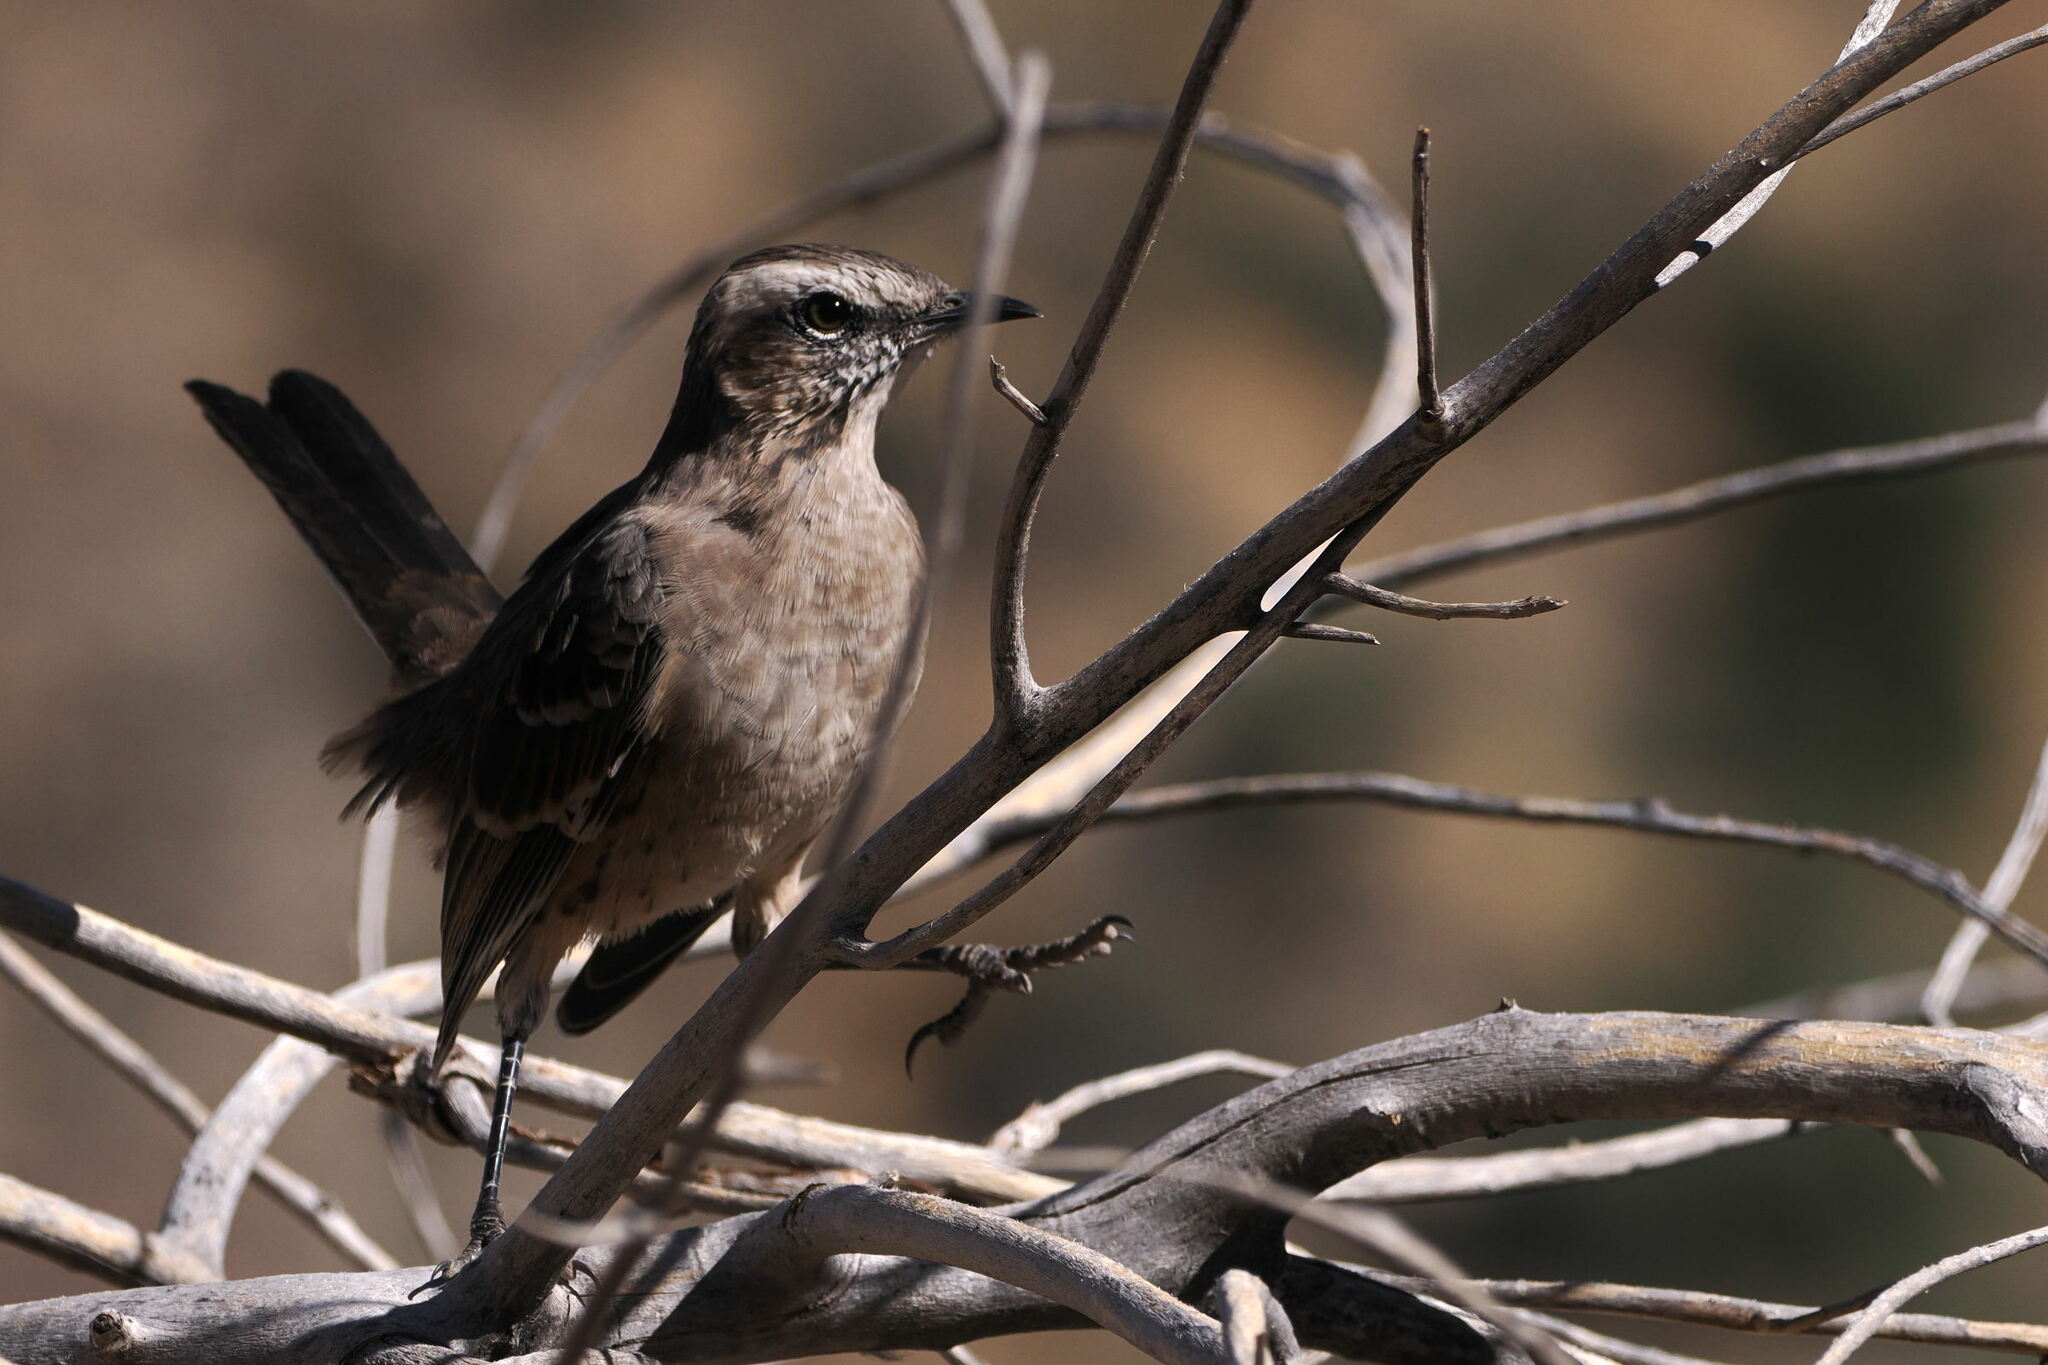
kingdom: Animalia
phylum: Chordata
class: Aves
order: Passeriformes
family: Mimidae
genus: Mimus
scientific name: Mimus thenca
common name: Chilean mockingbird
